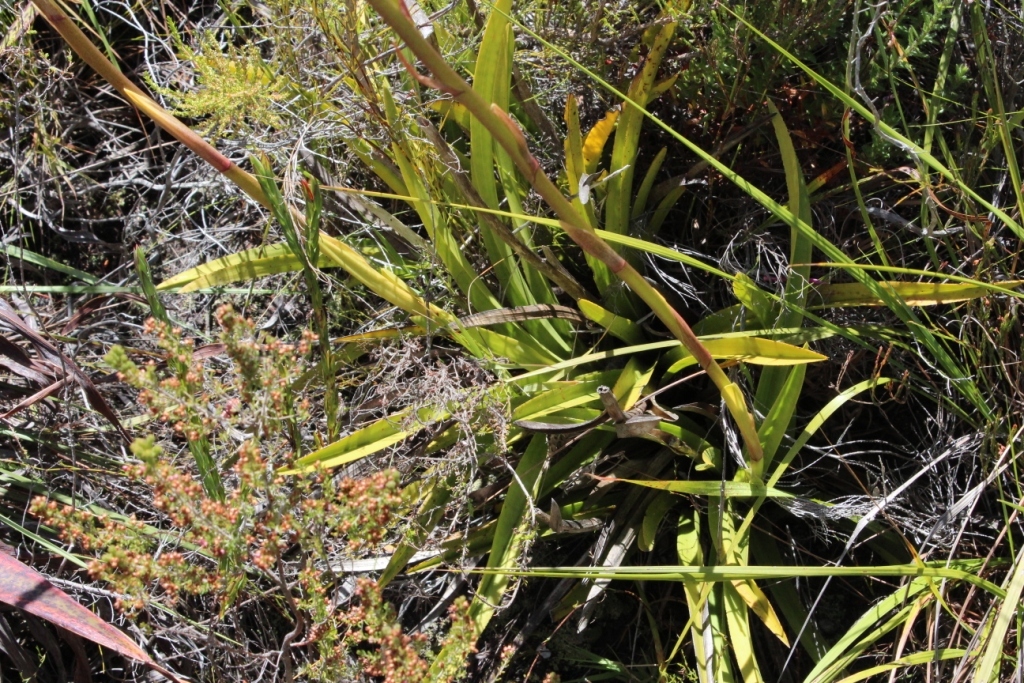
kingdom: Plantae
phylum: Tracheophyta
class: Liliopsida
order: Asparagales
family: Orchidaceae
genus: Eulophia
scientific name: Eulophia barbata
